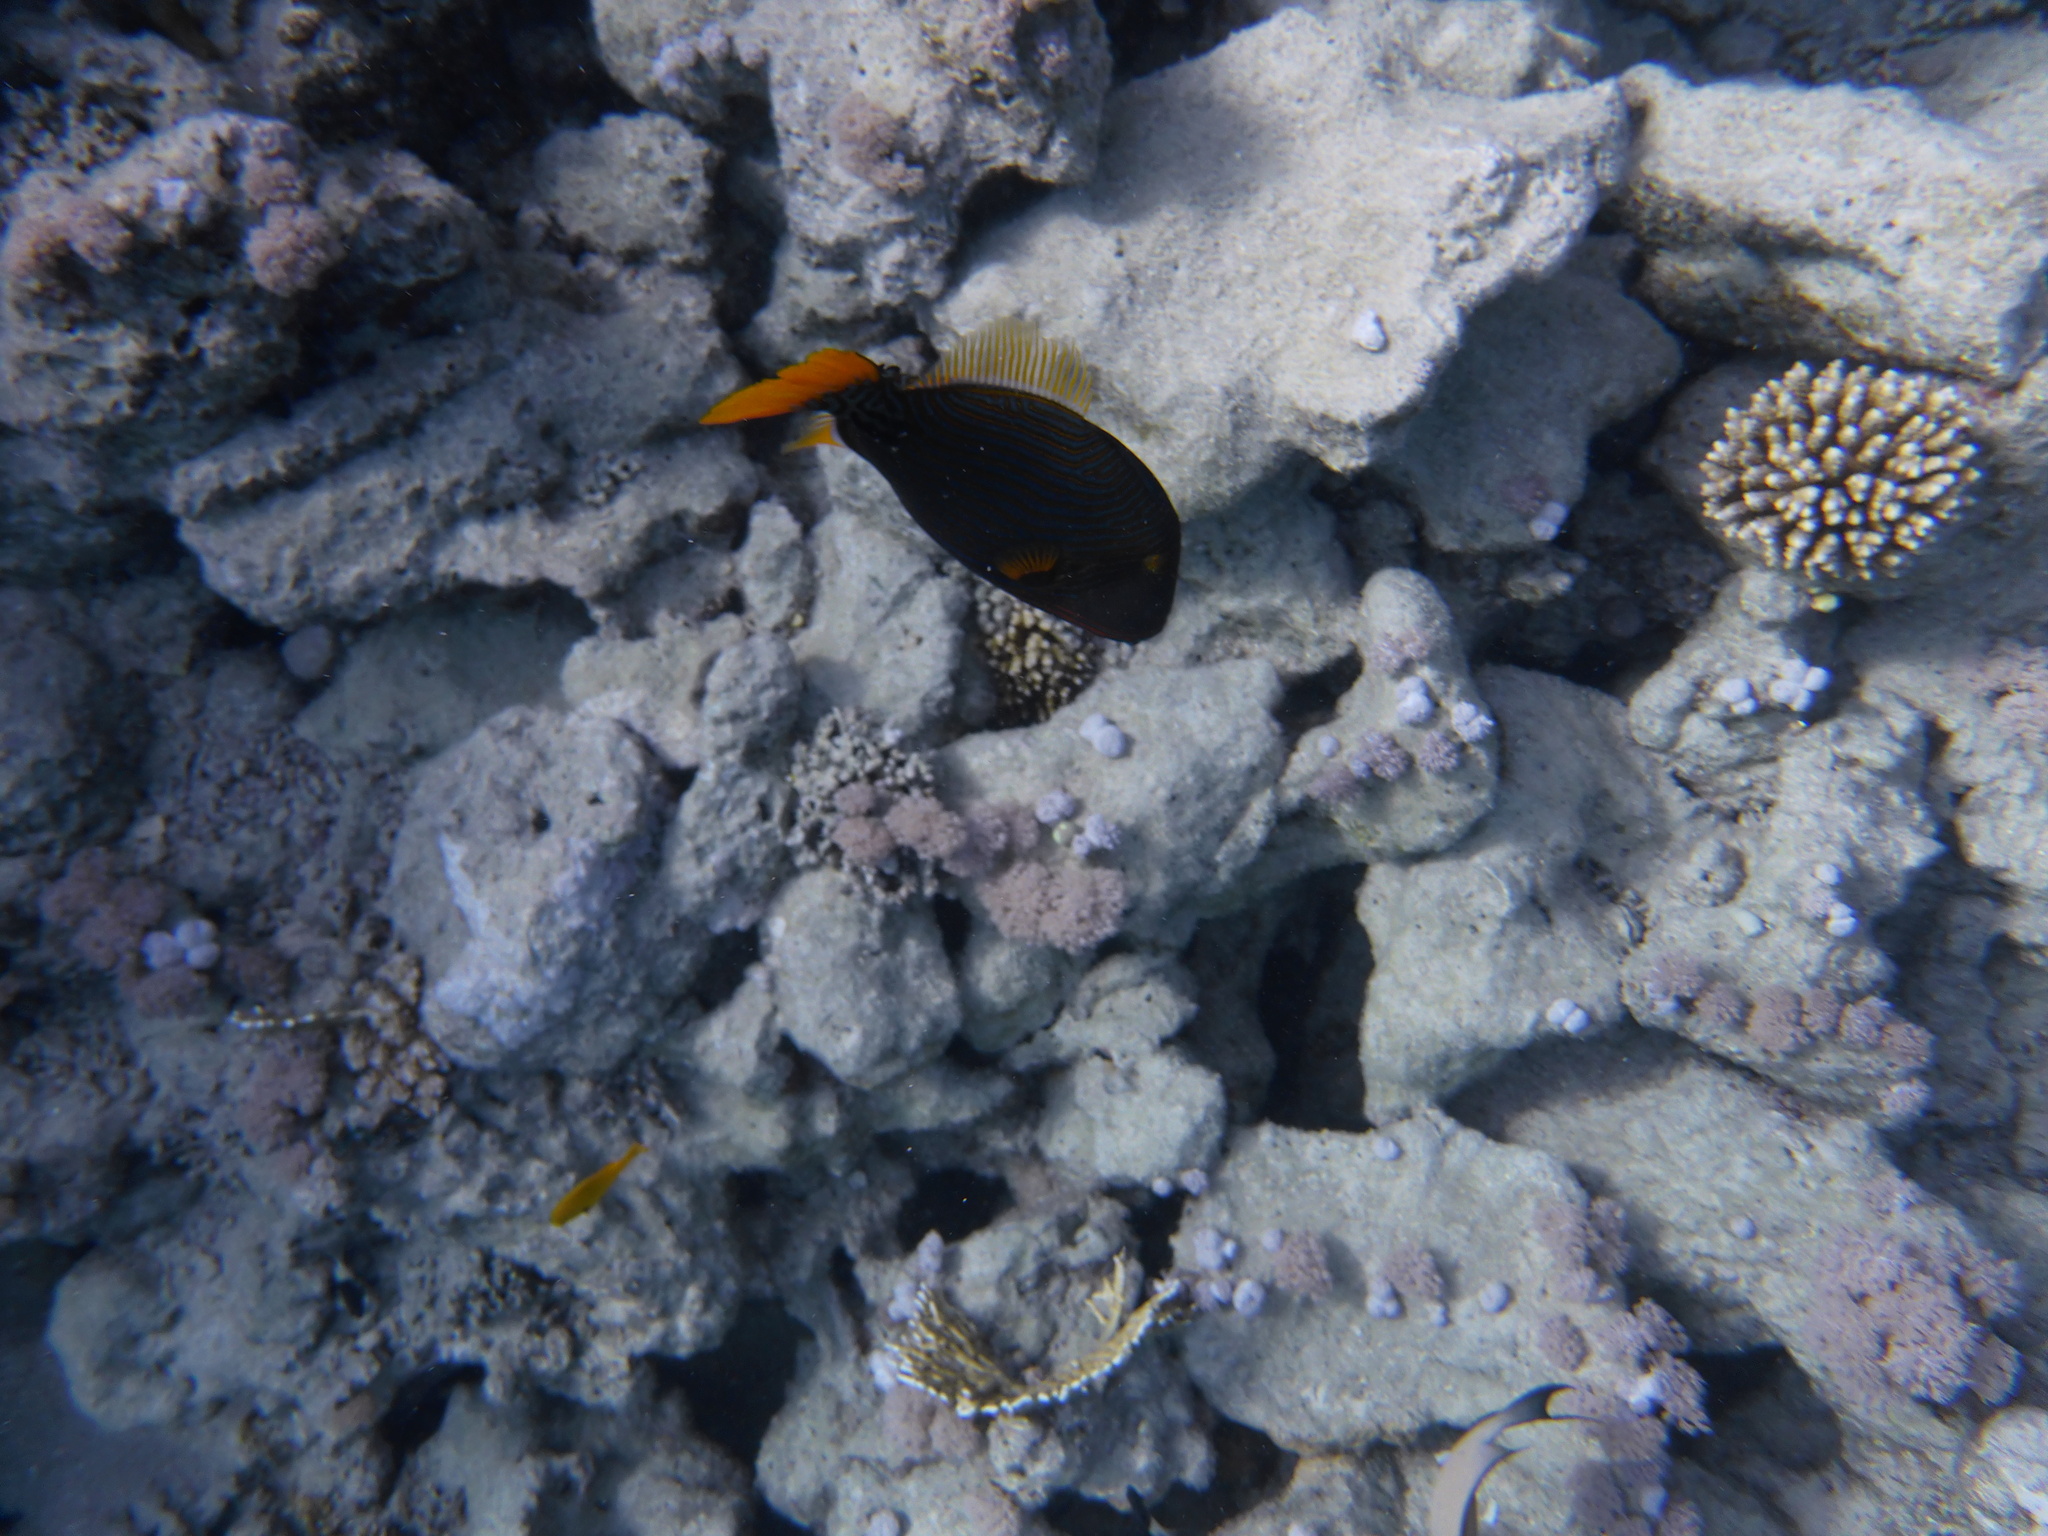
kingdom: Animalia
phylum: Chordata
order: Tetraodontiformes
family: Balistidae
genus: Balistapus
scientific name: Balistapus undulatus
